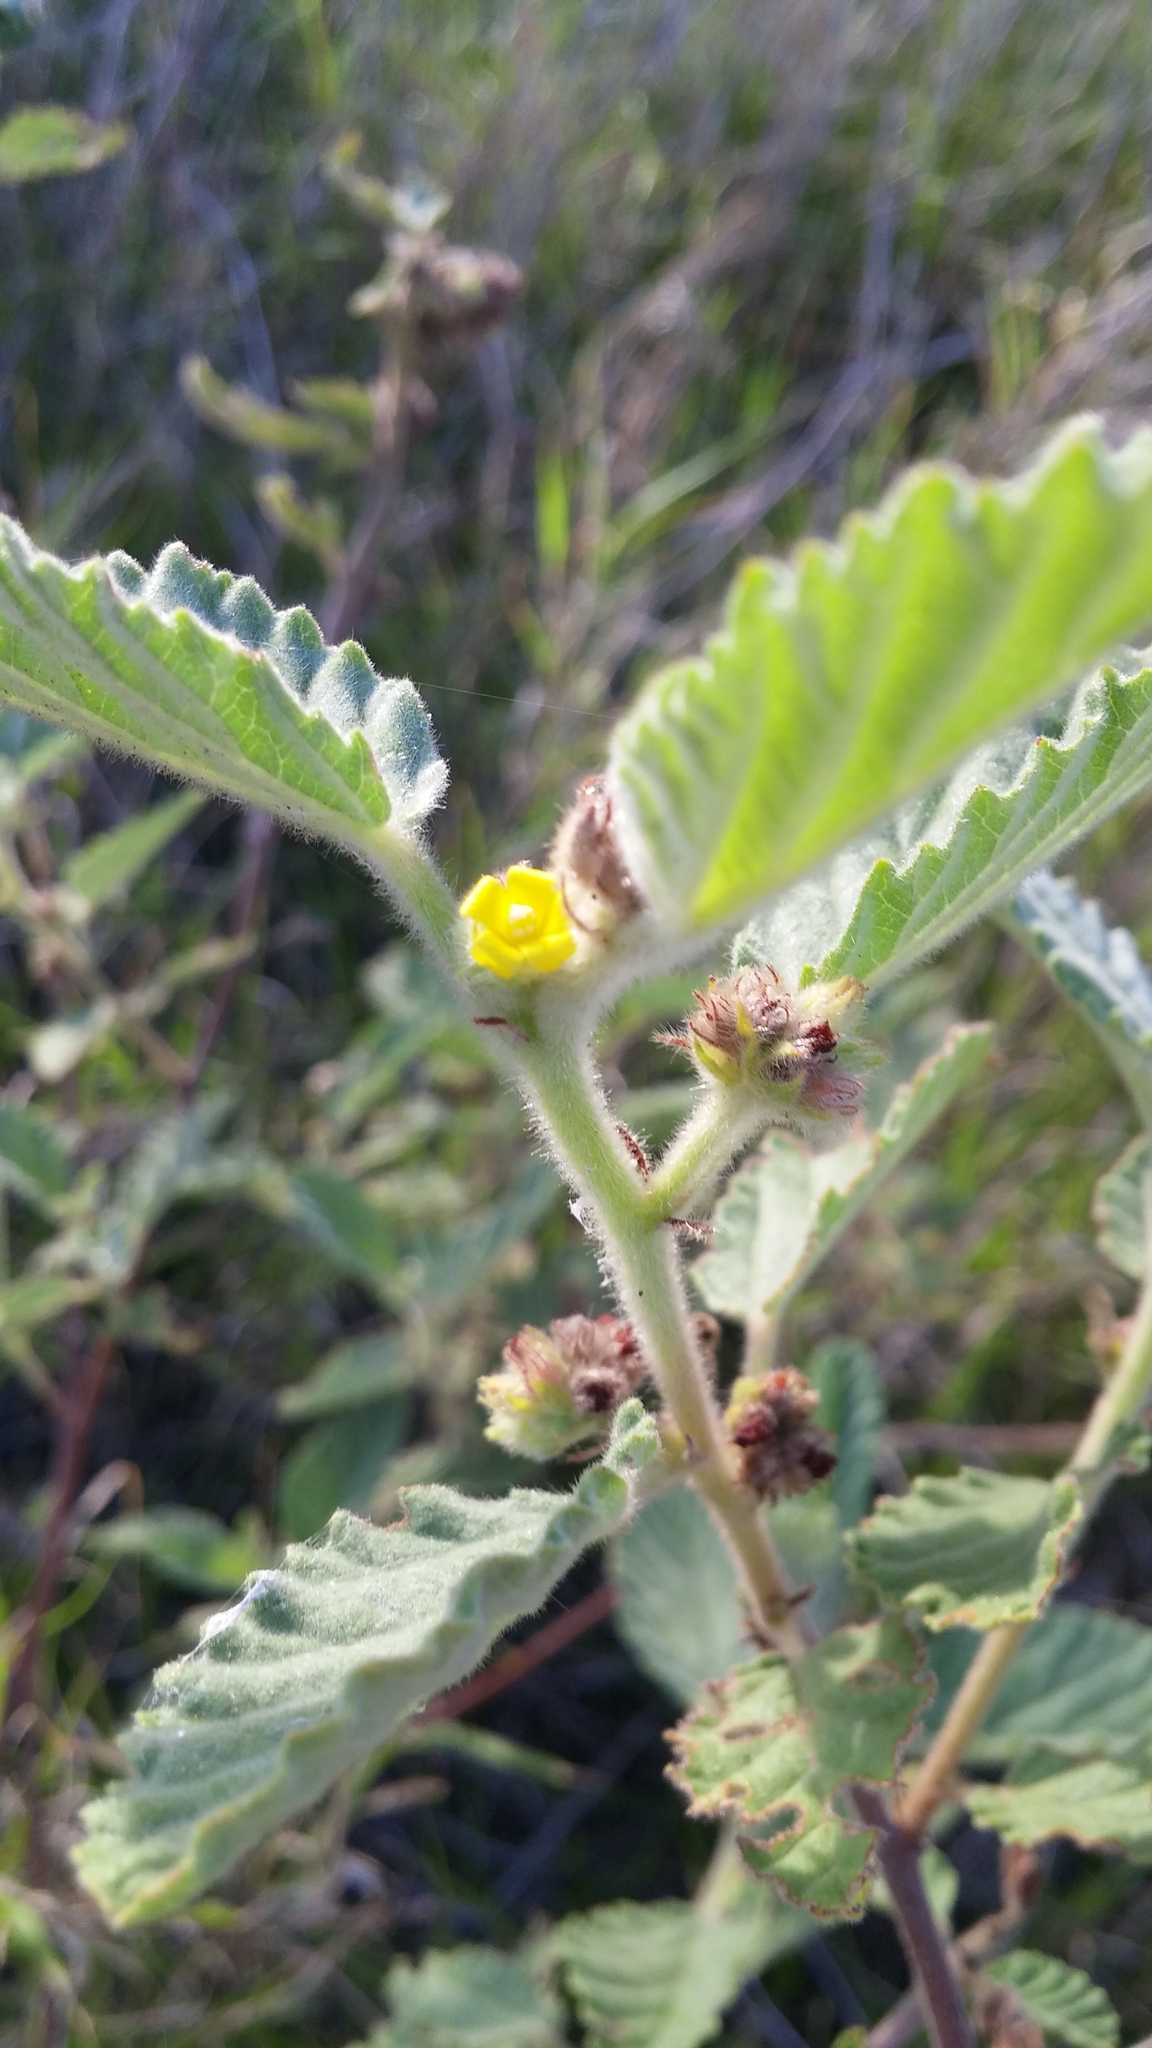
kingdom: Plantae
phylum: Tracheophyta
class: Magnoliopsida
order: Malvales
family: Malvaceae
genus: Waltheria
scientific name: Waltheria indica
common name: Leather-coat
